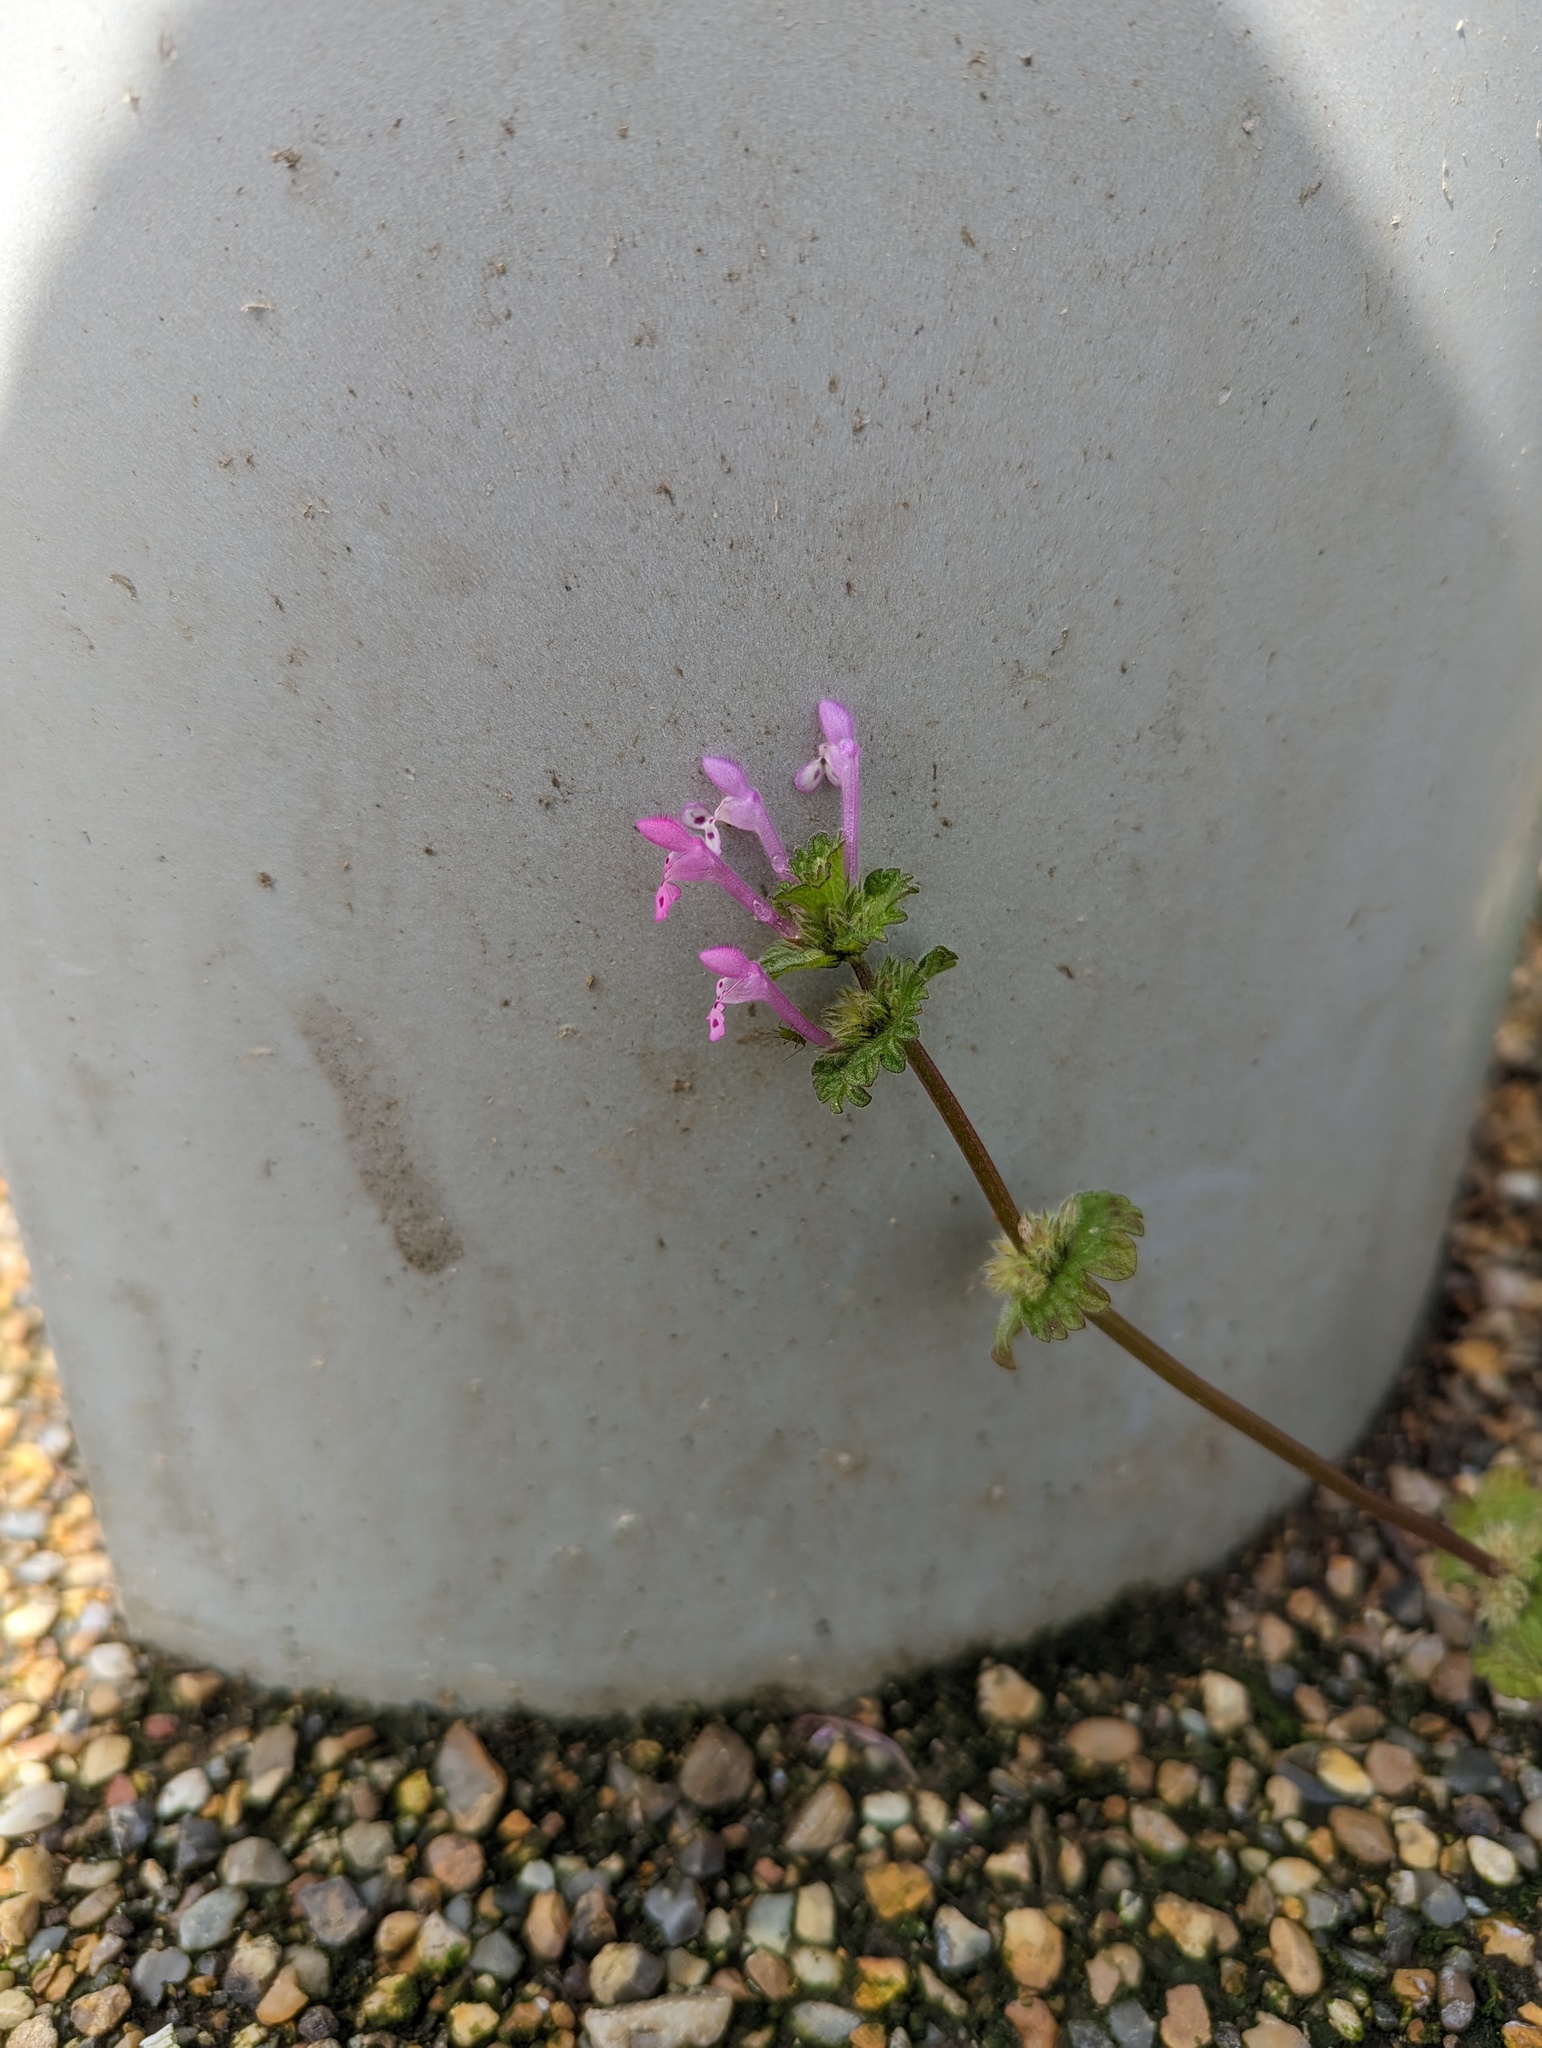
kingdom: Plantae
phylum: Tracheophyta
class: Magnoliopsida
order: Lamiales
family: Lamiaceae
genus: Lamium
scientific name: Lamium amplexicaule
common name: Henbit dead-nettle
